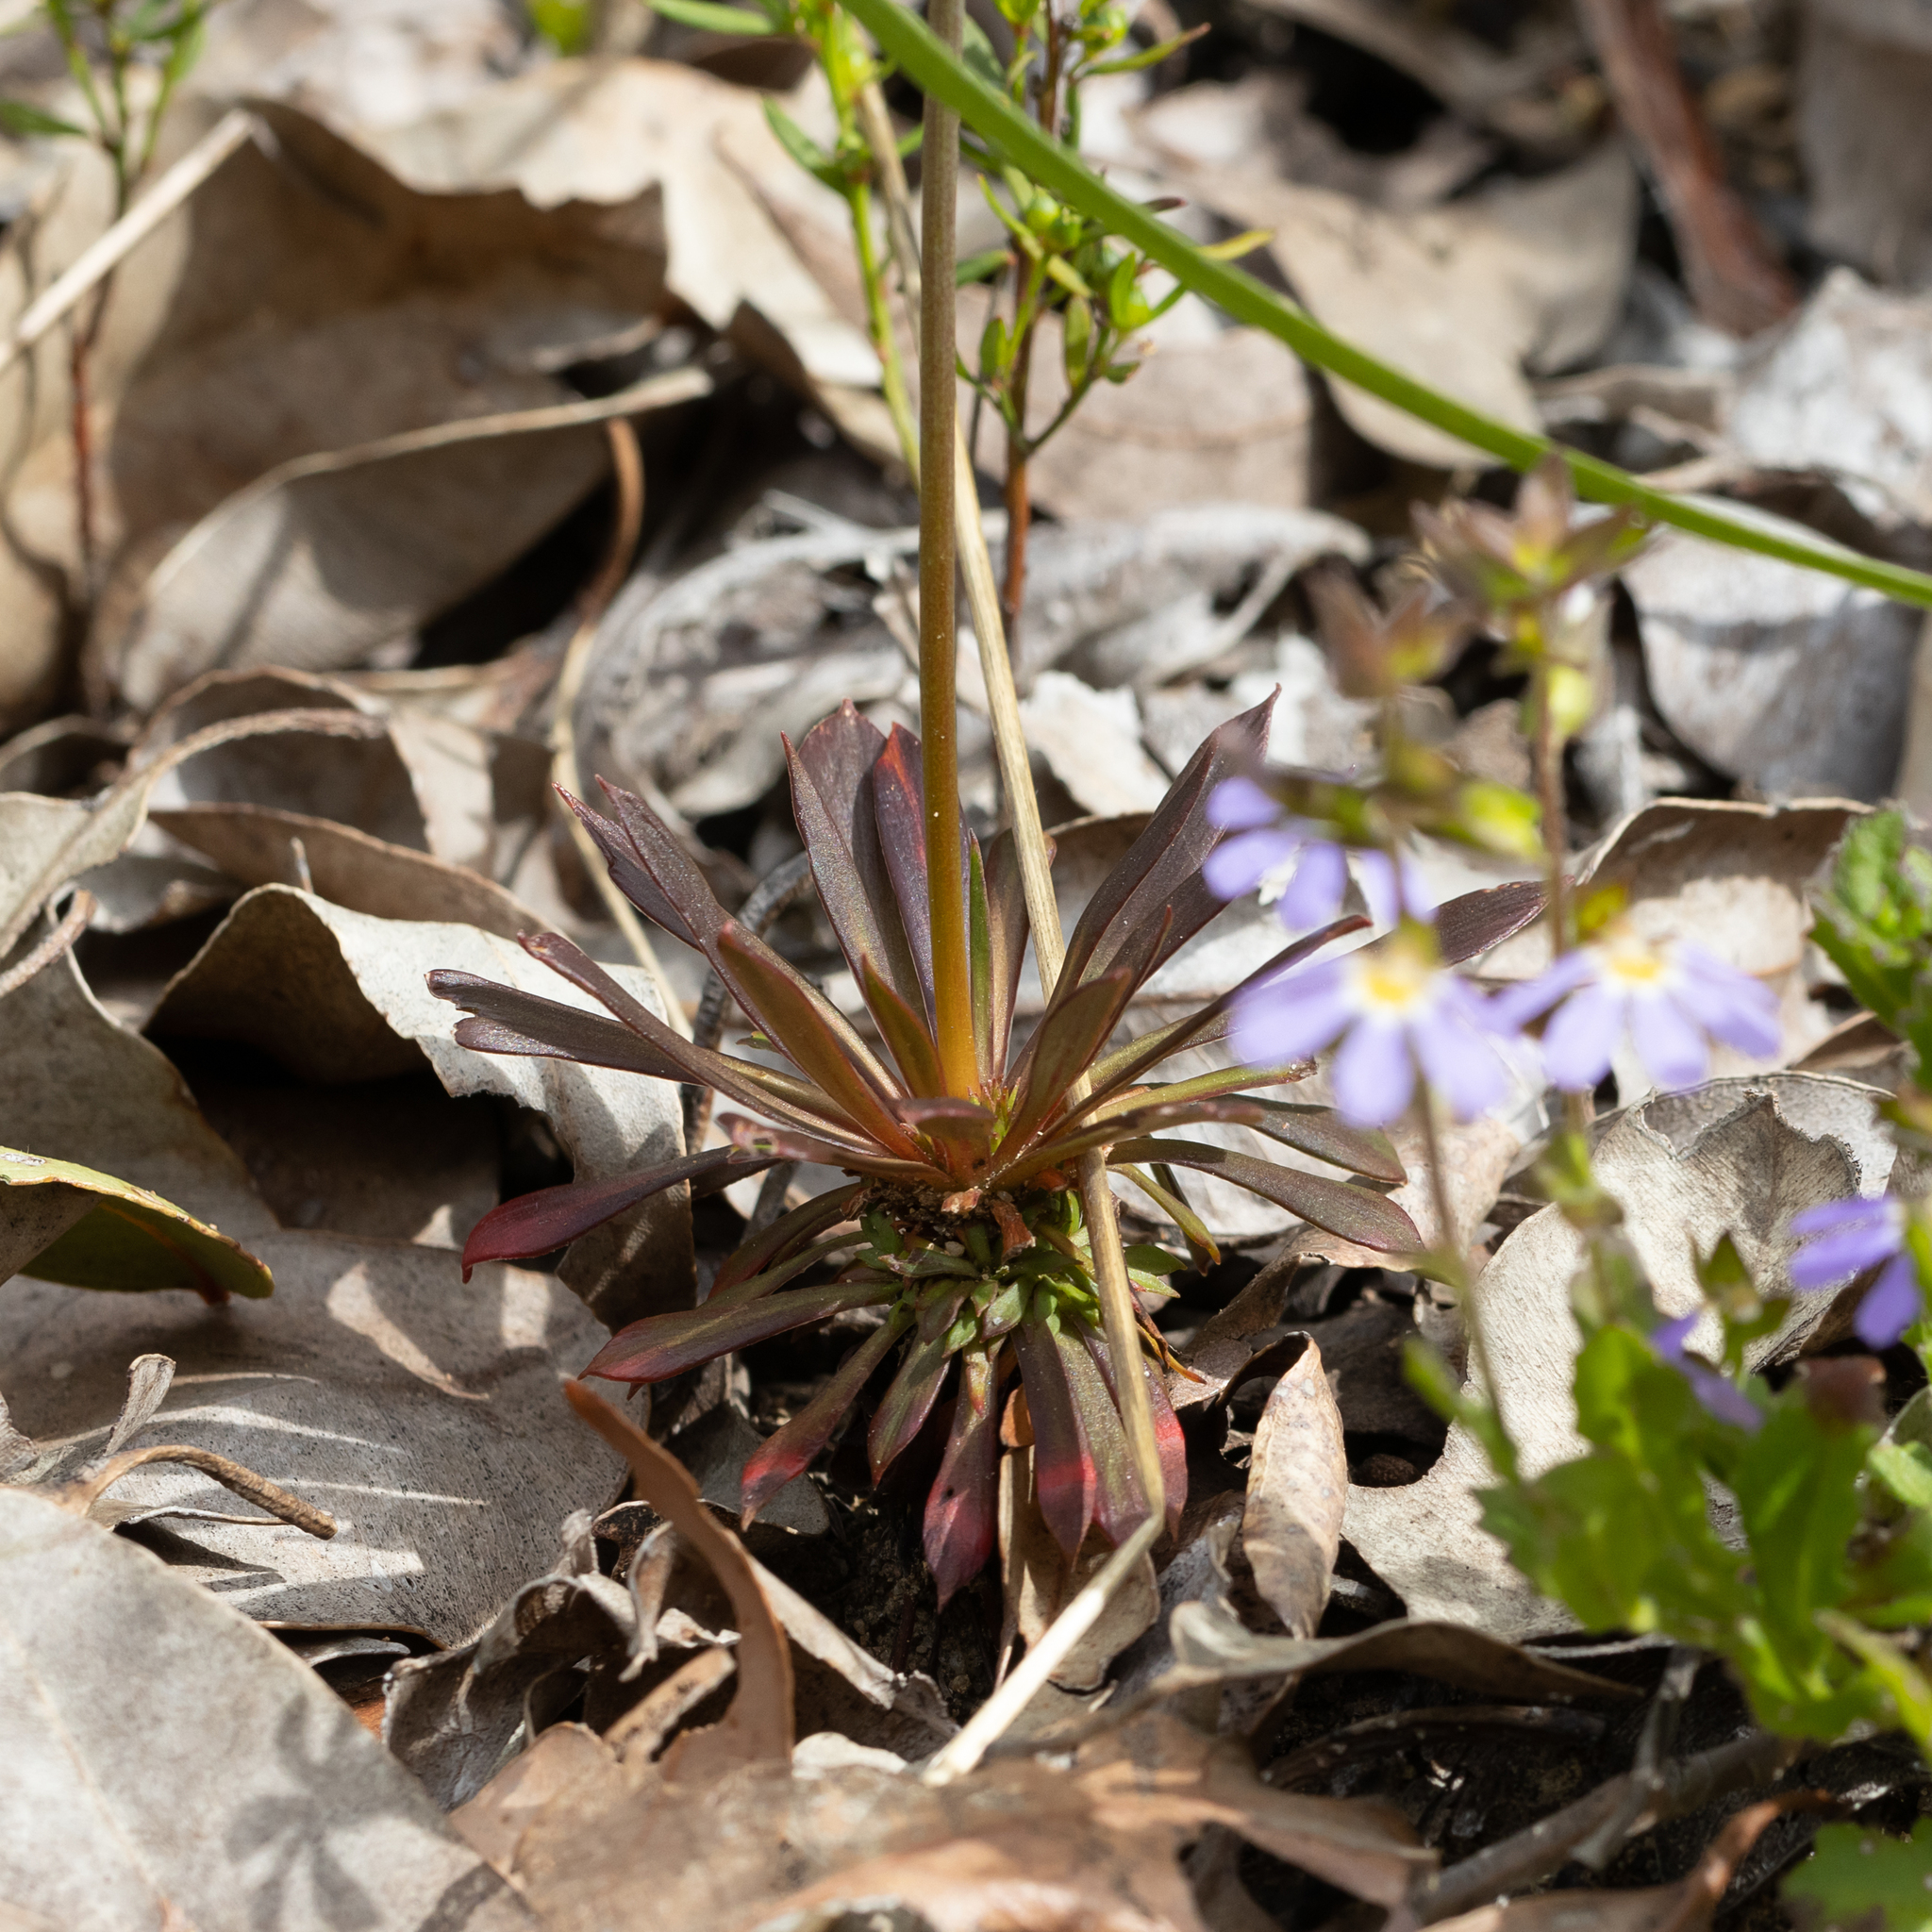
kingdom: Plantae
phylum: Tracheophyta
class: Magnoliopsida
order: Asterales
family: Stylidiaceae
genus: Stylidium
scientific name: Stylidium amoenum
